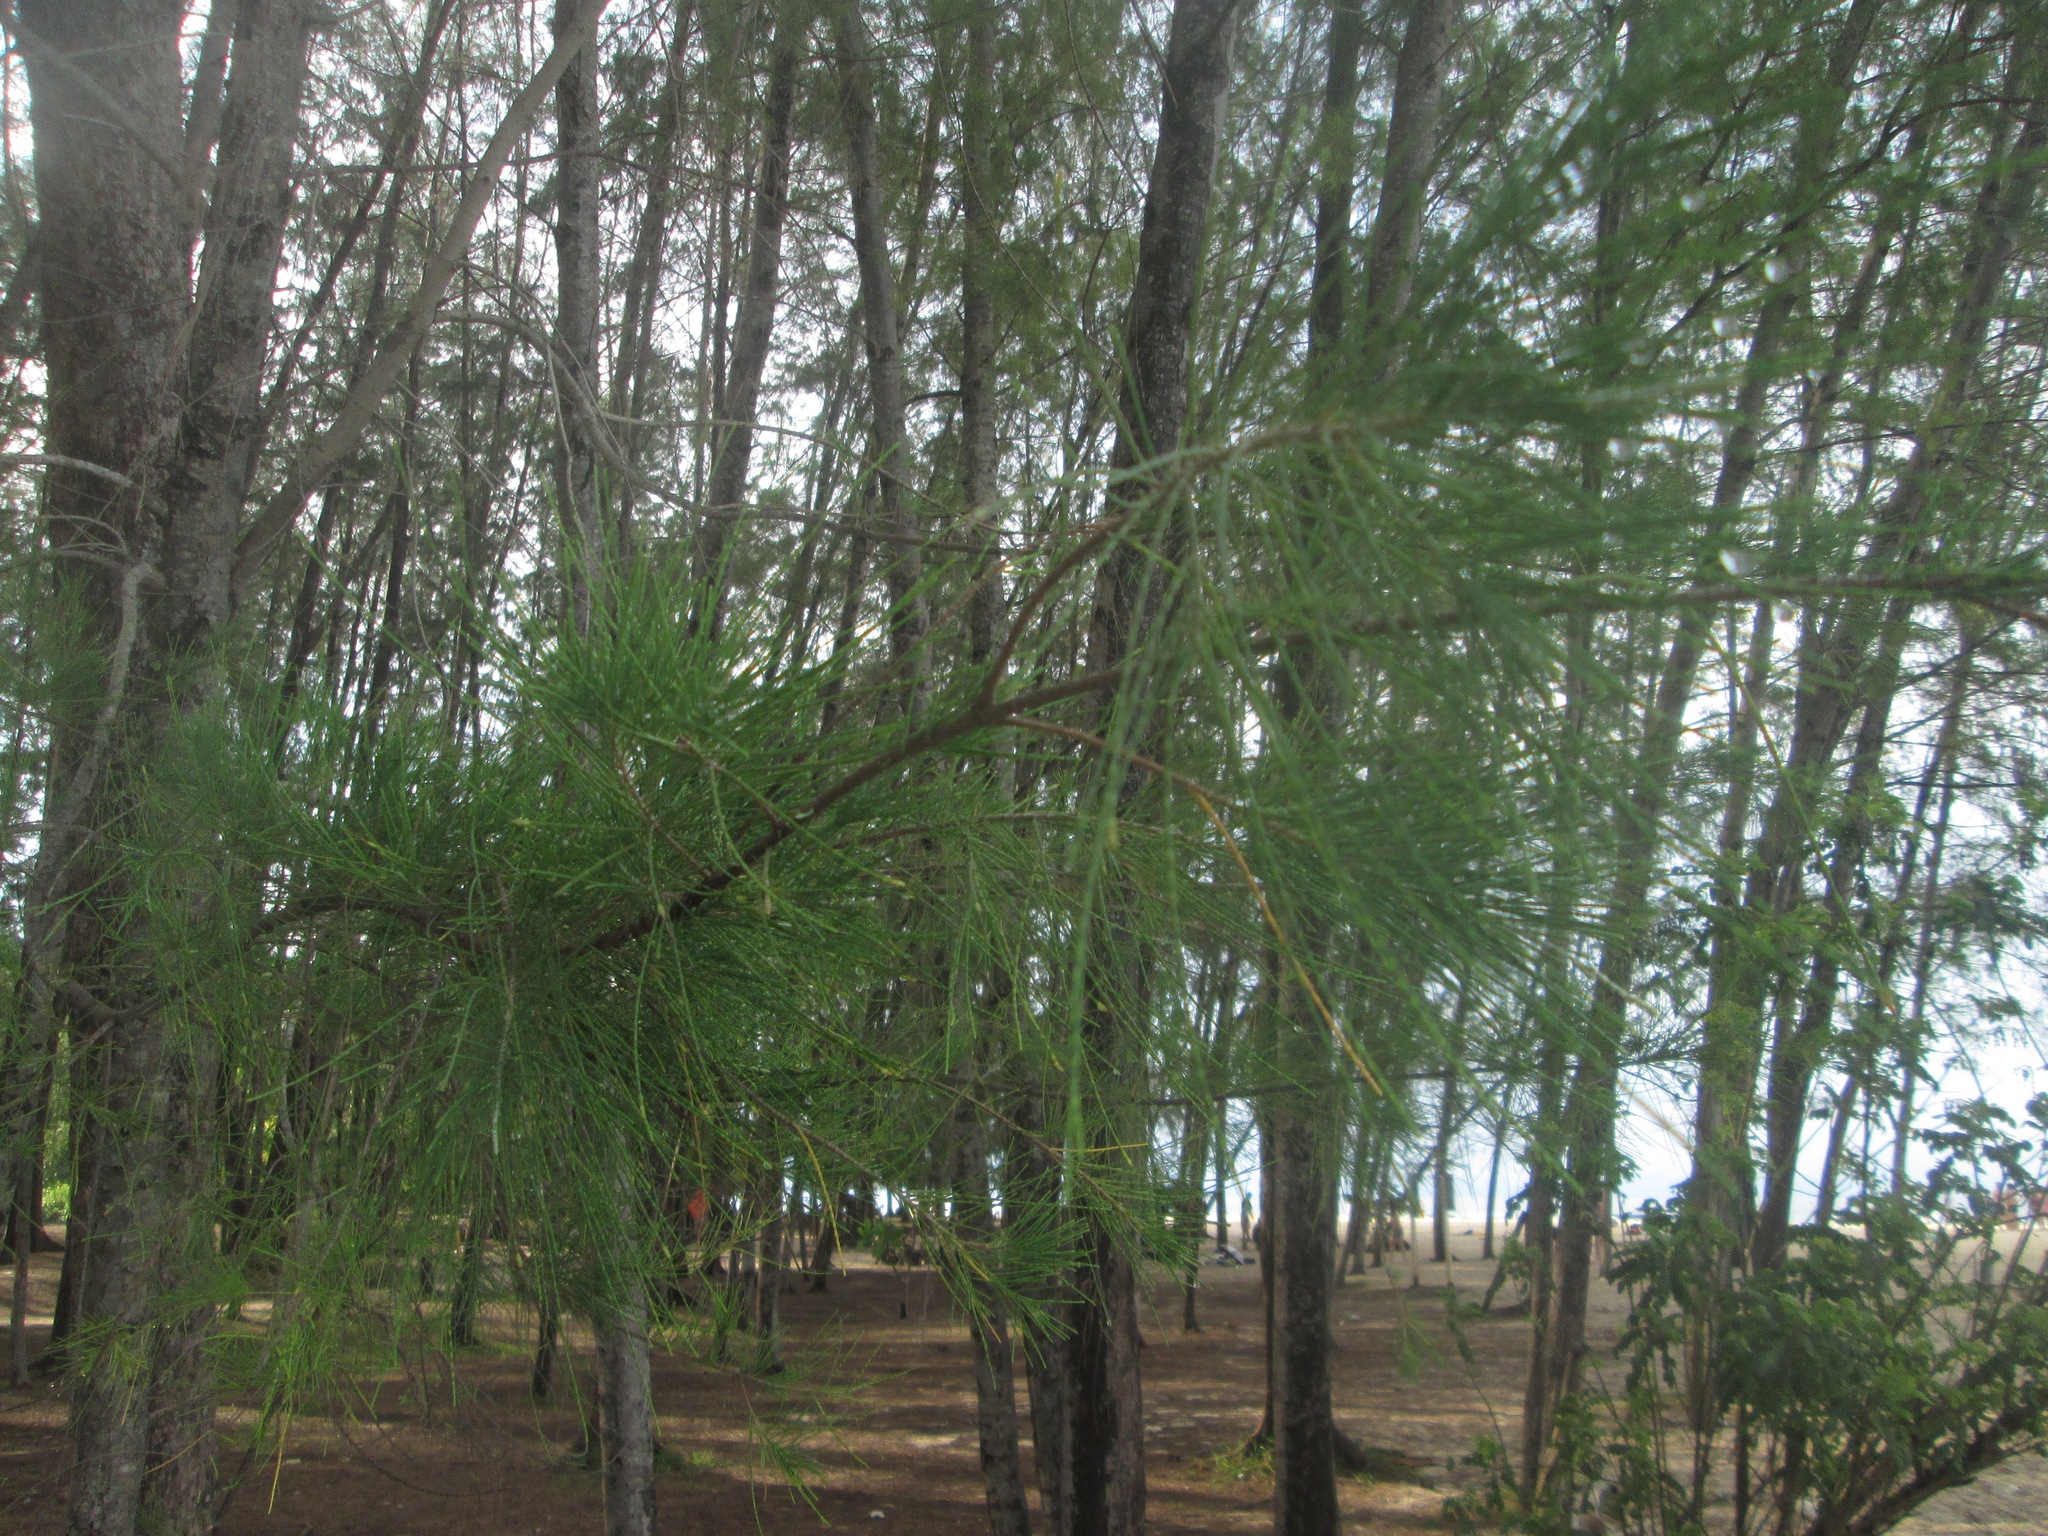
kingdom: Plantae
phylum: Tracheophyta
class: Magnoliopsida
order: Fagales
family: Casuarinaceae
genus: Casuarina
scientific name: Casuarina equisetifolia
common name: Beach sheoak
